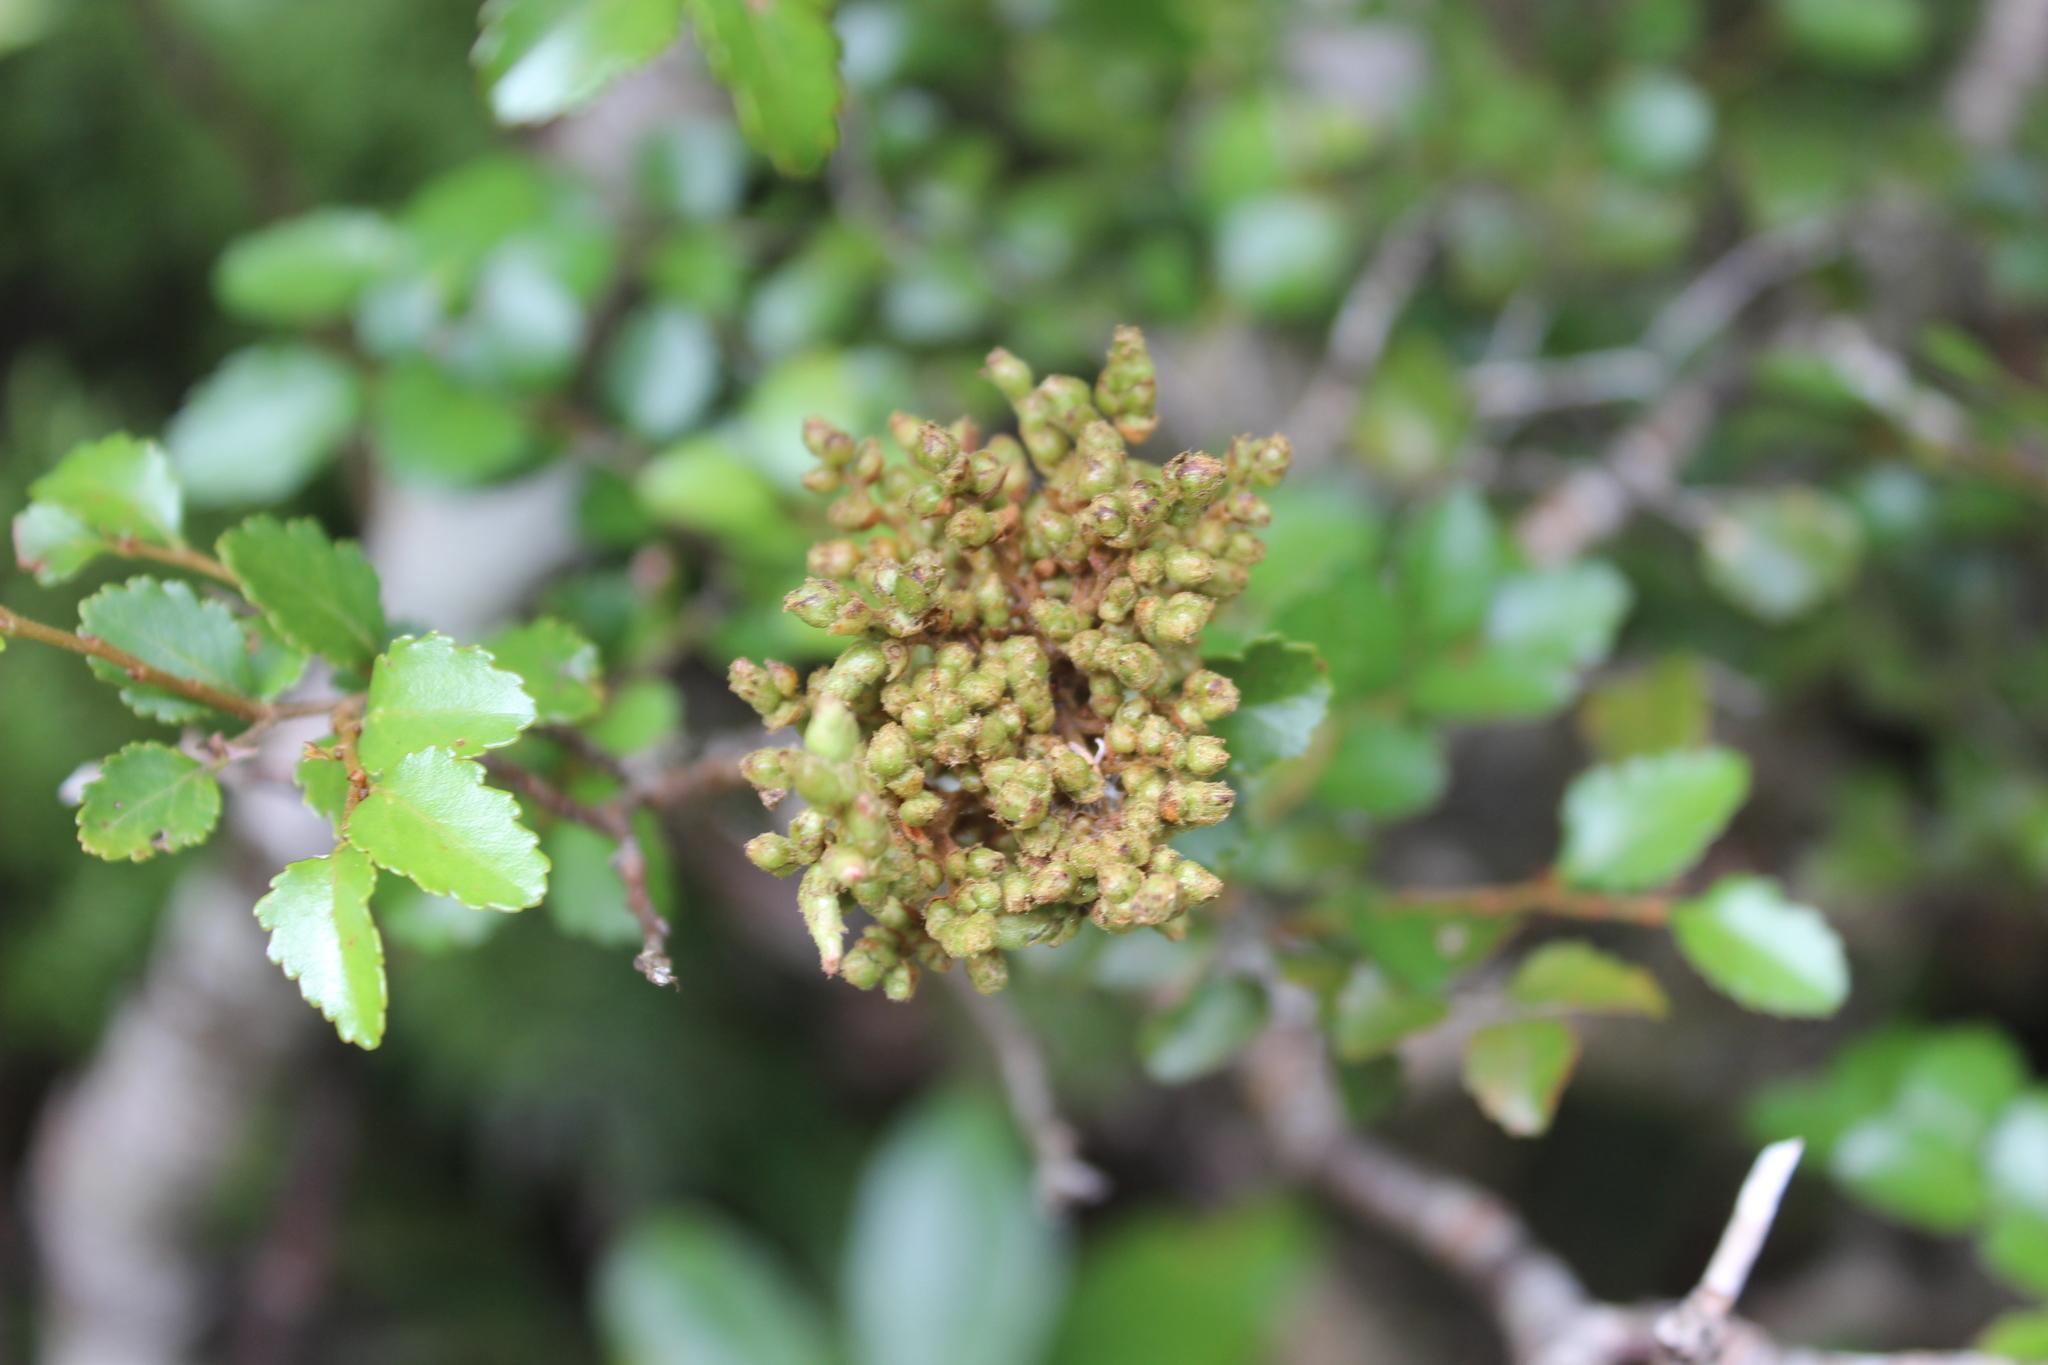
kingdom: Animalia
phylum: Arthropoda
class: Arachnida
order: Trombidiformes
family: Eriophyidae
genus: Cymoptus
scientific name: Cymoptus
